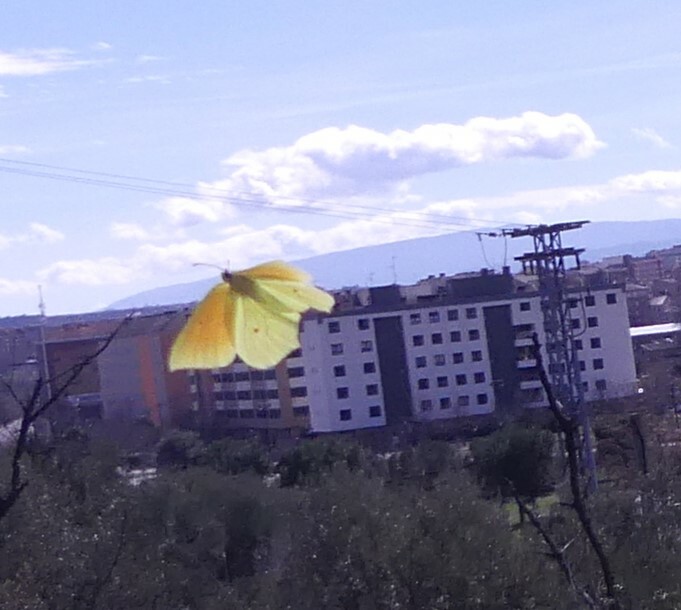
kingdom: Animalia
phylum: Arthropoda
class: Insecta
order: Lepidoptera
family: Pieridae
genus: Gonepteryx
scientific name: Gonepteryx cleopatra
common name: Cleopatra
